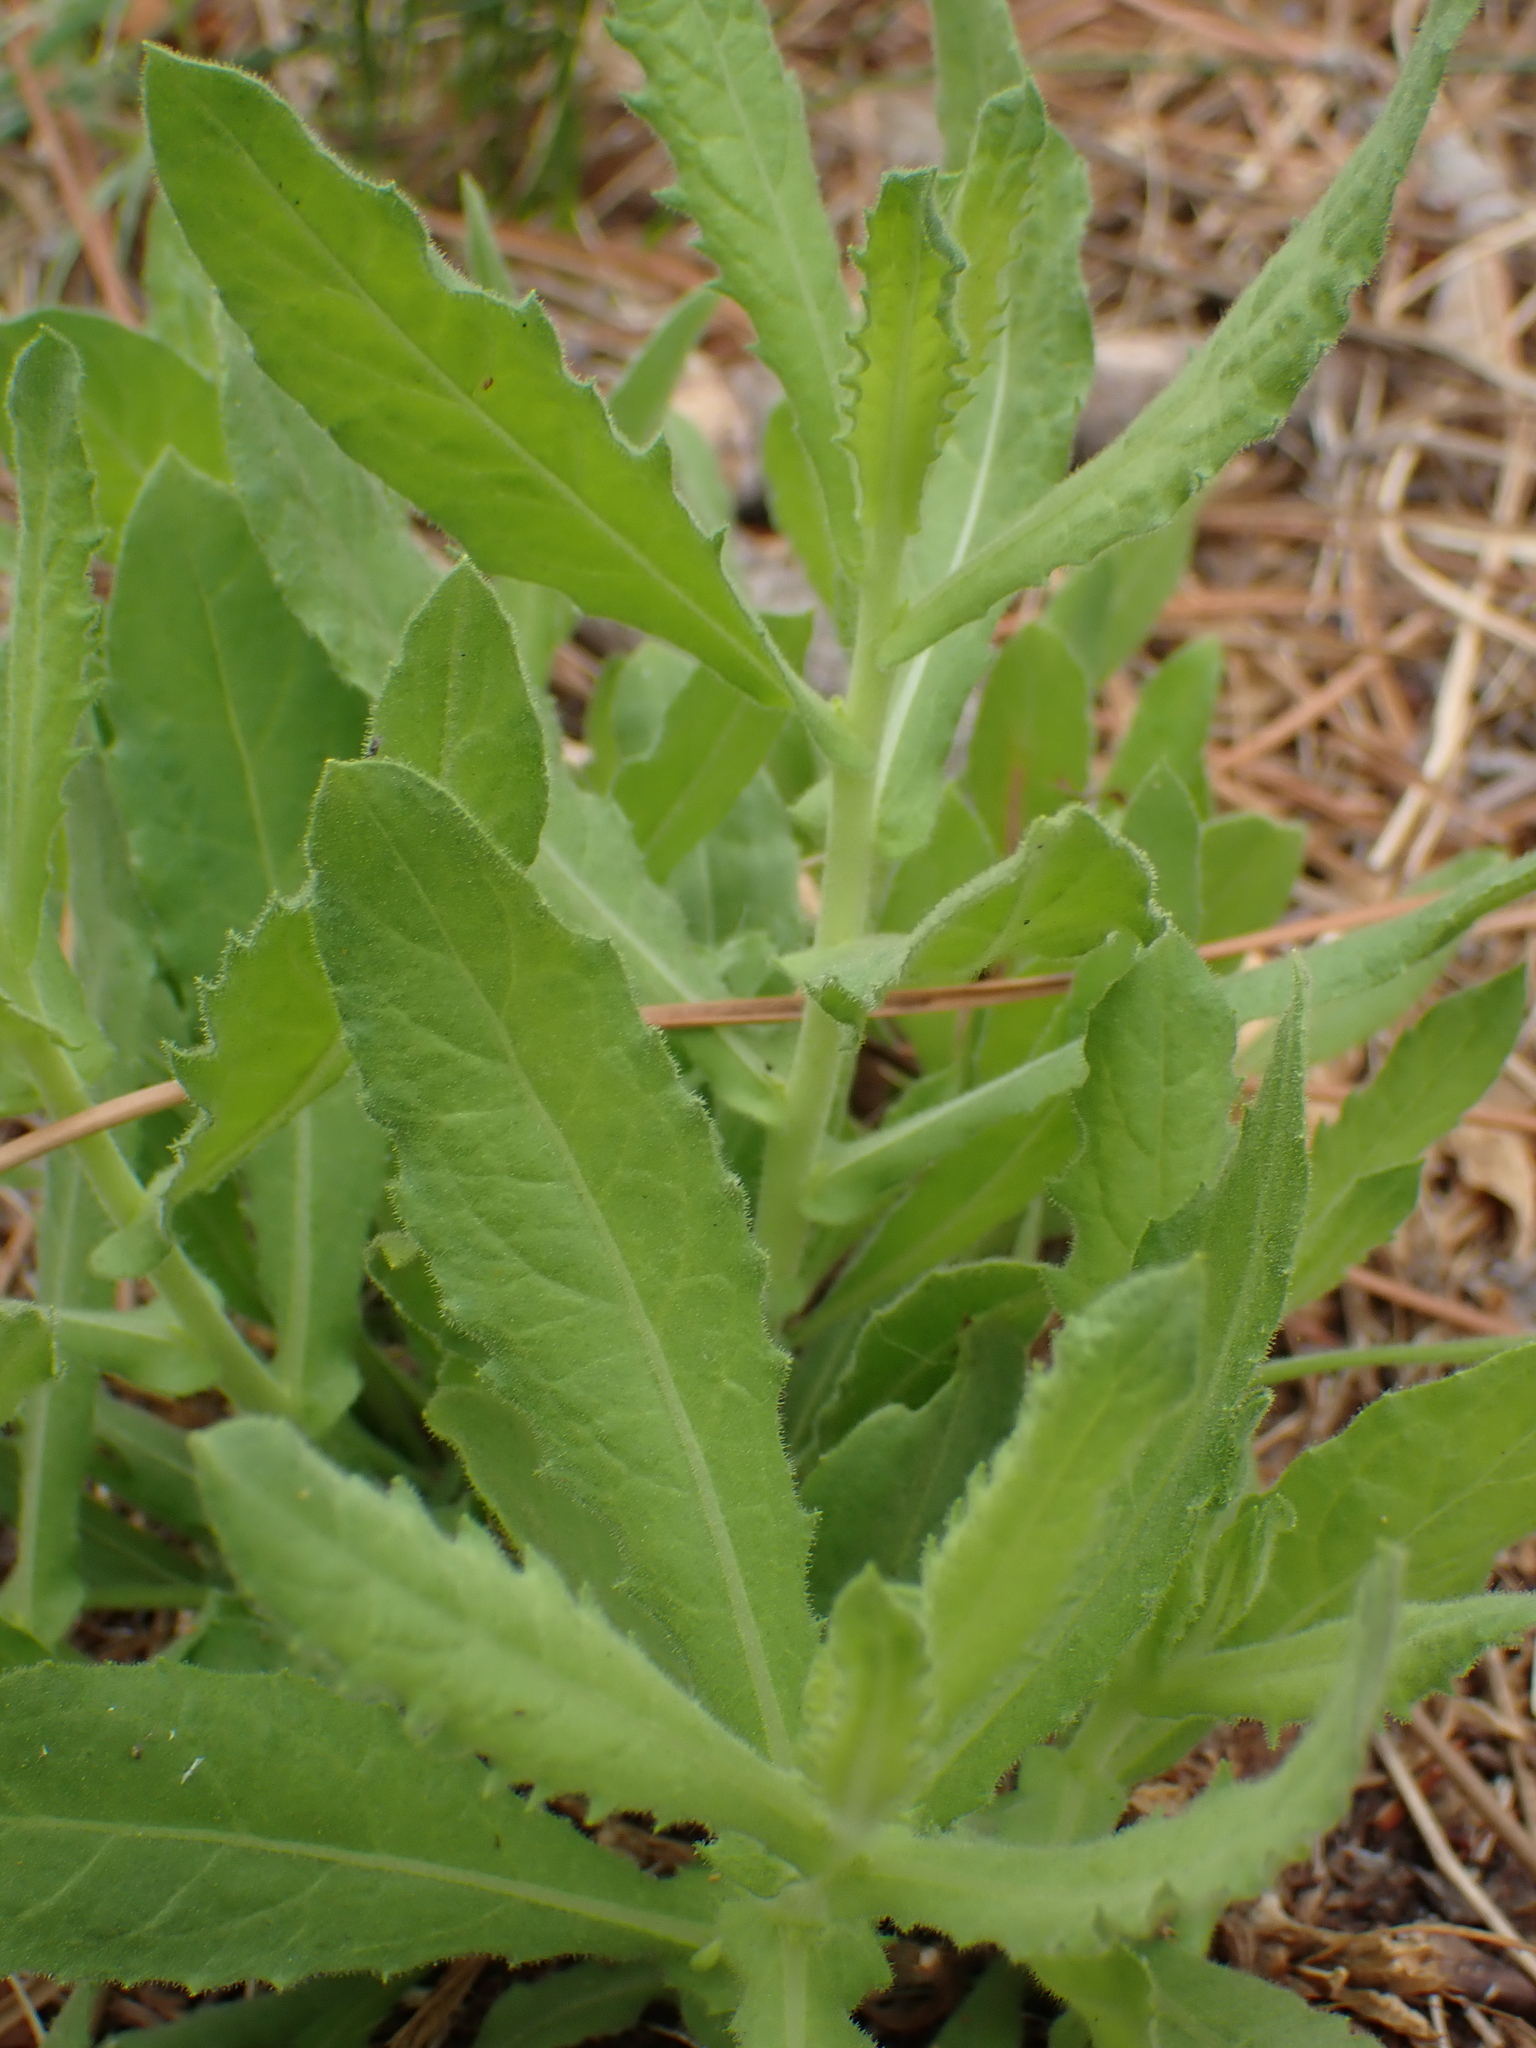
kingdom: Plantae
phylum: Tracheophyta
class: Magnoliopsida
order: Asterales
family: Asteraceae
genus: Dittrichia
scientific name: Dittrichia viscosa
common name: Woody fleabane
